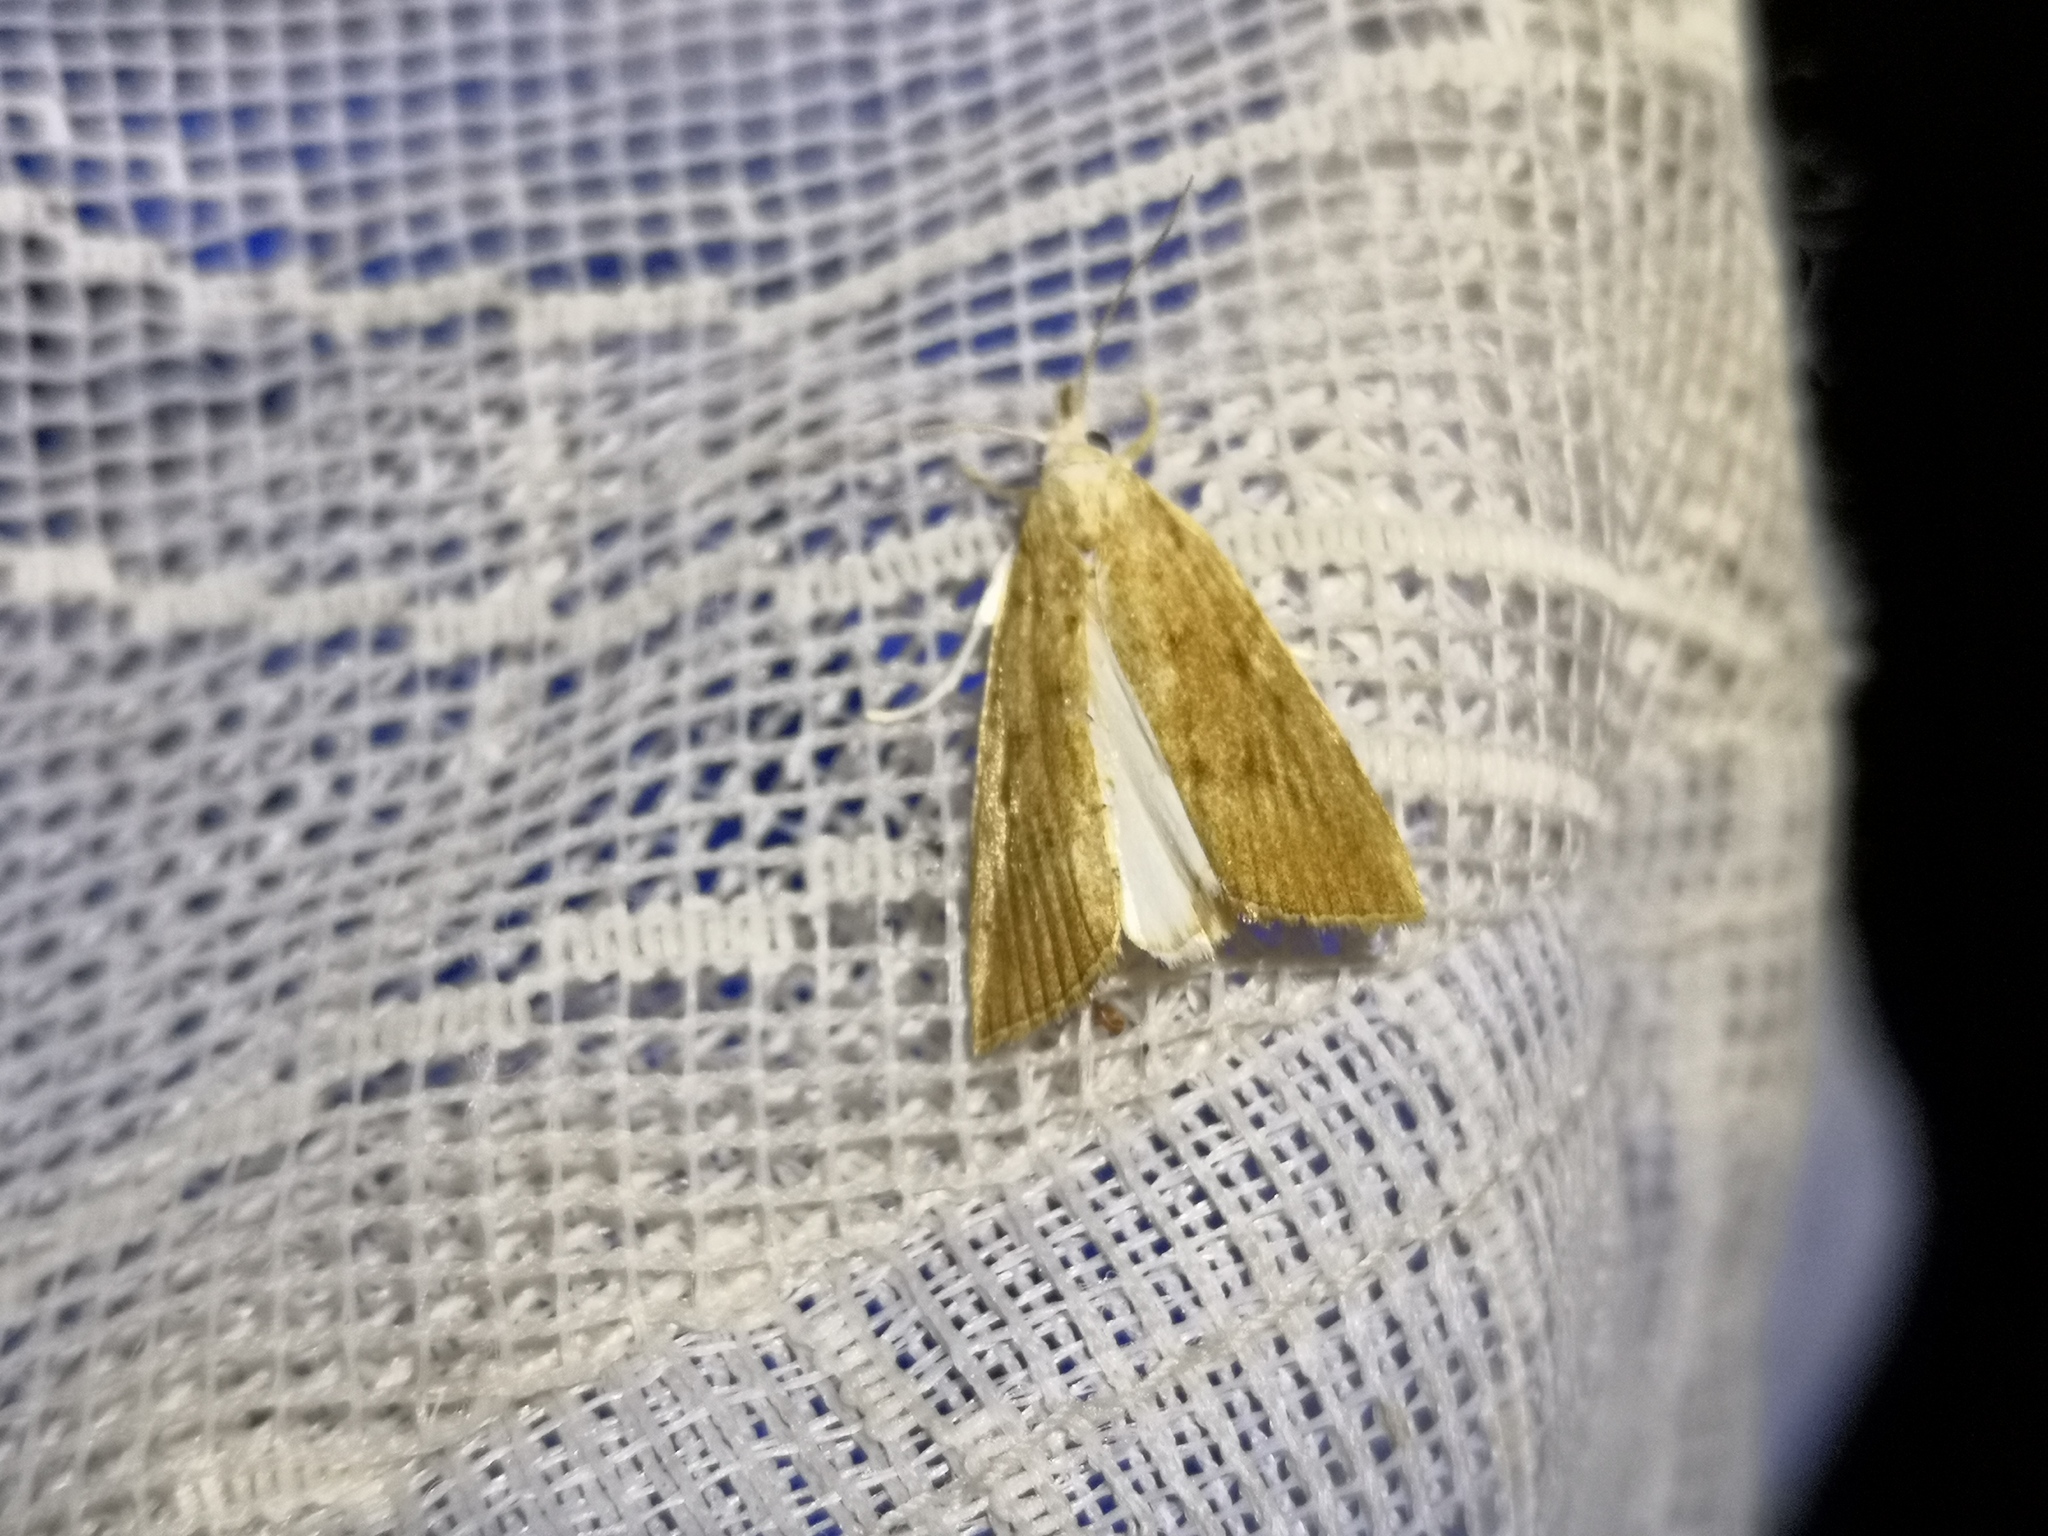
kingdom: Animalia
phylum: Arthropoda
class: Insecta
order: Lepidoptera
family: Crambidae
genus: Calamotropha
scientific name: Calamotropha paludella
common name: Bulrush veneer
